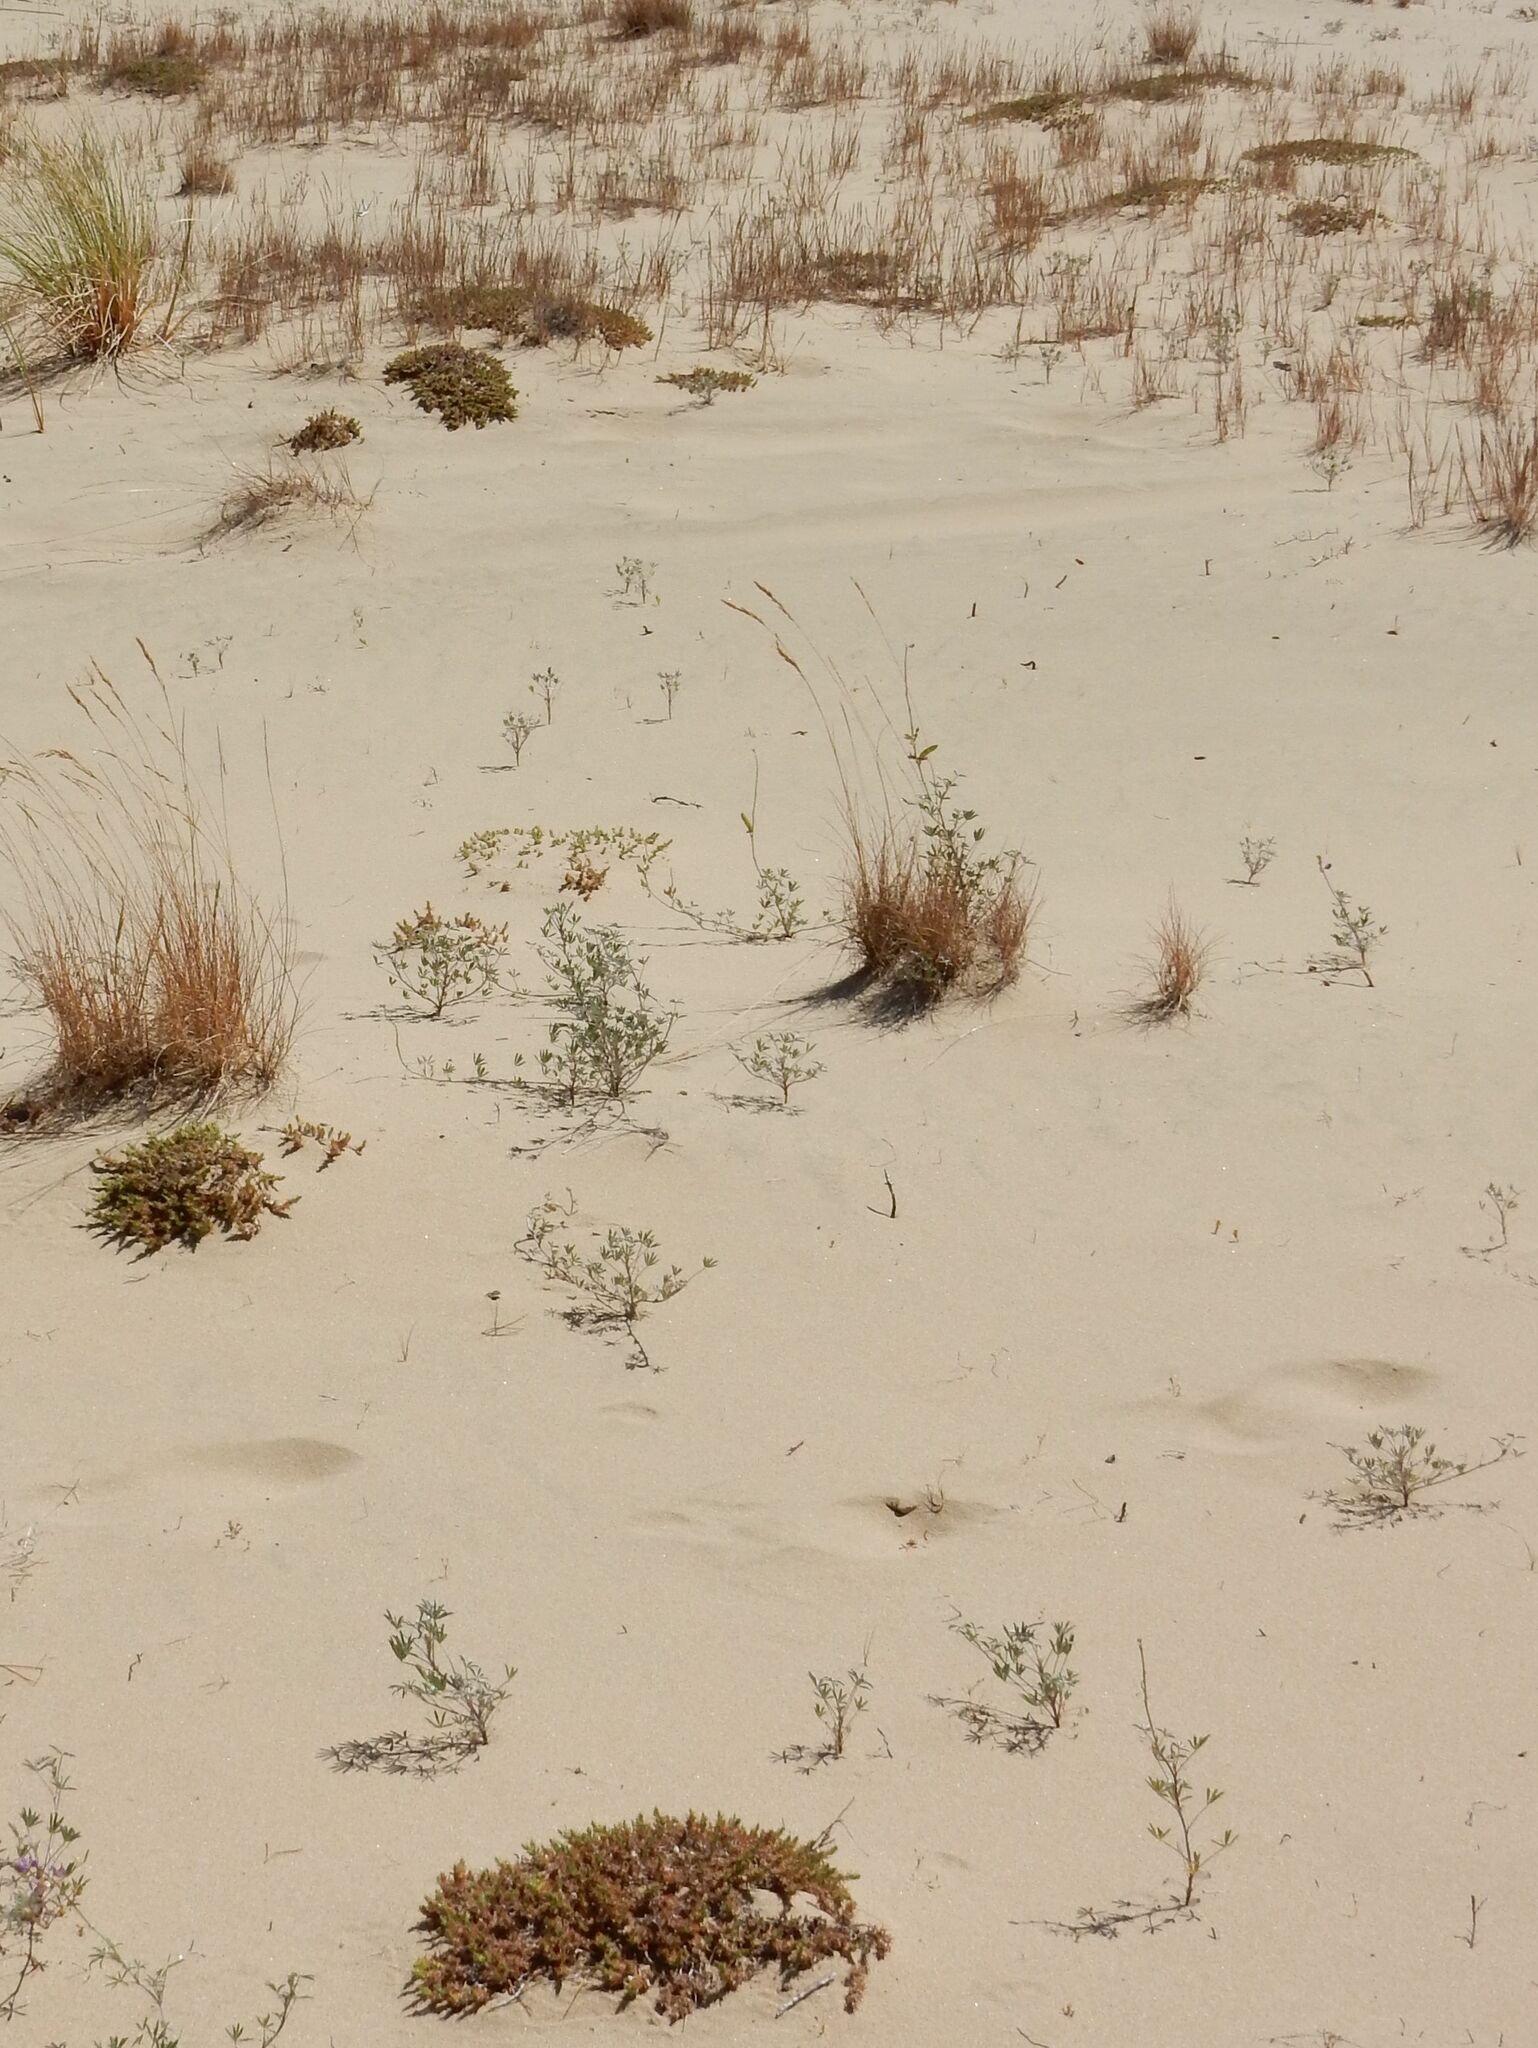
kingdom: Plantae
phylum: Tracheophyta
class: Magnoliopsida
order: Caryophyllales
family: Caryophyllaceae
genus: Cardionema
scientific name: Cardionema ramosissima
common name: Sandcarpet
